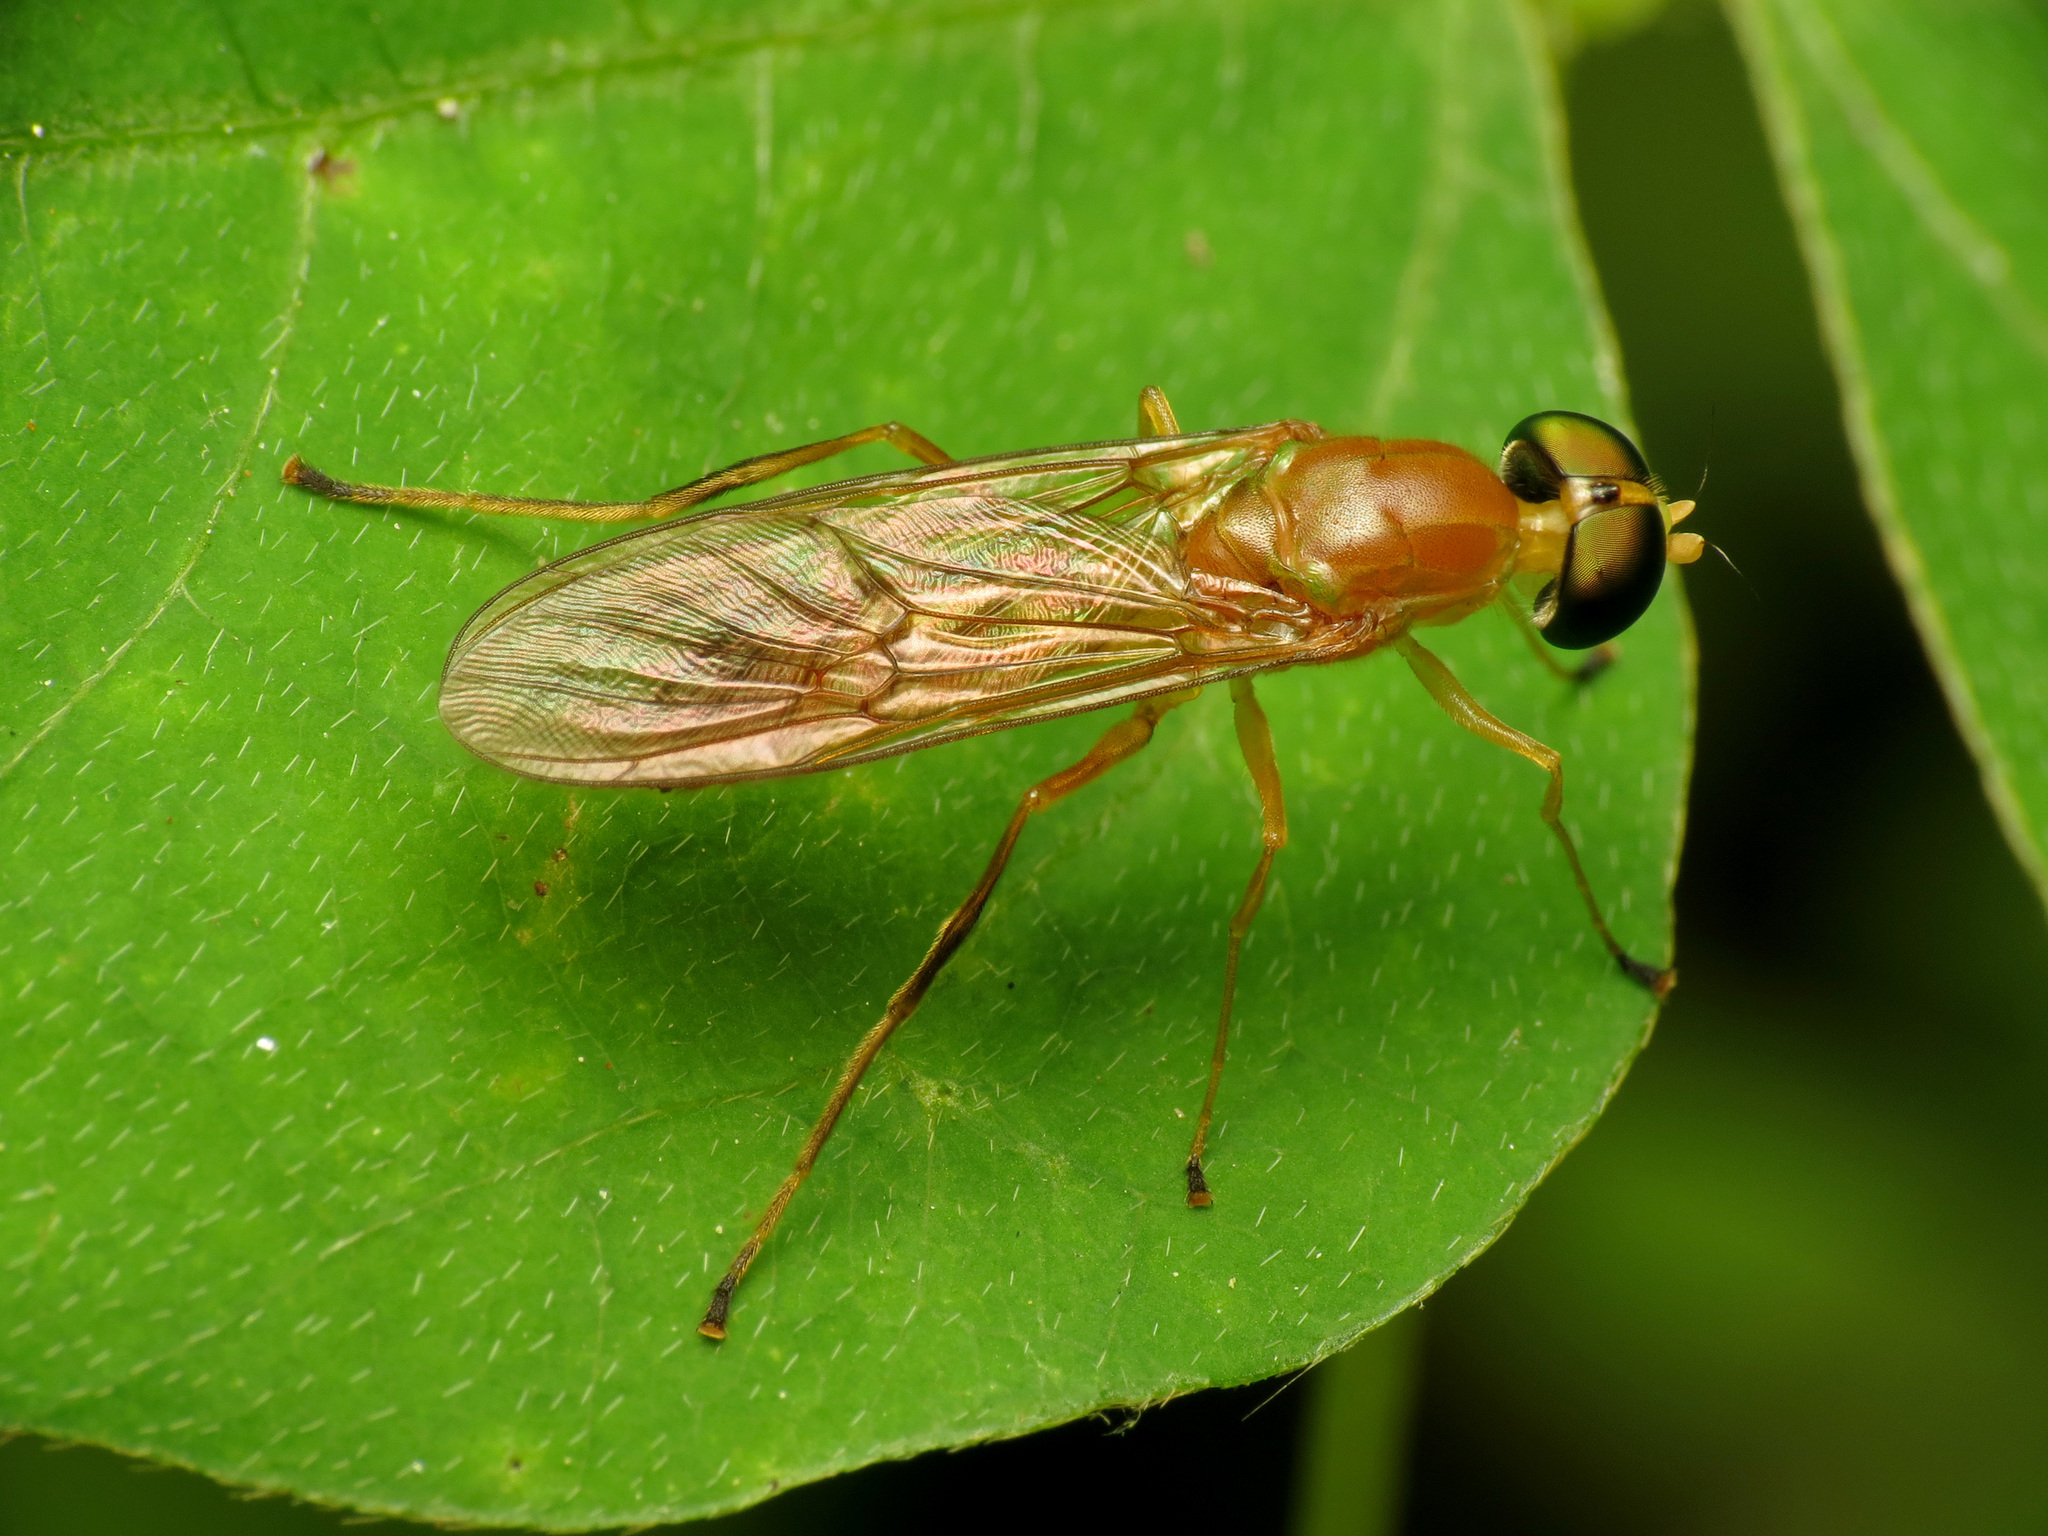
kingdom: Animalia
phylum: Arthropoda
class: Insecta
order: Diptera
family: Stratiomyidae
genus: Ptecticus
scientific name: Ptecticus trivittatus
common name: Compost fly
